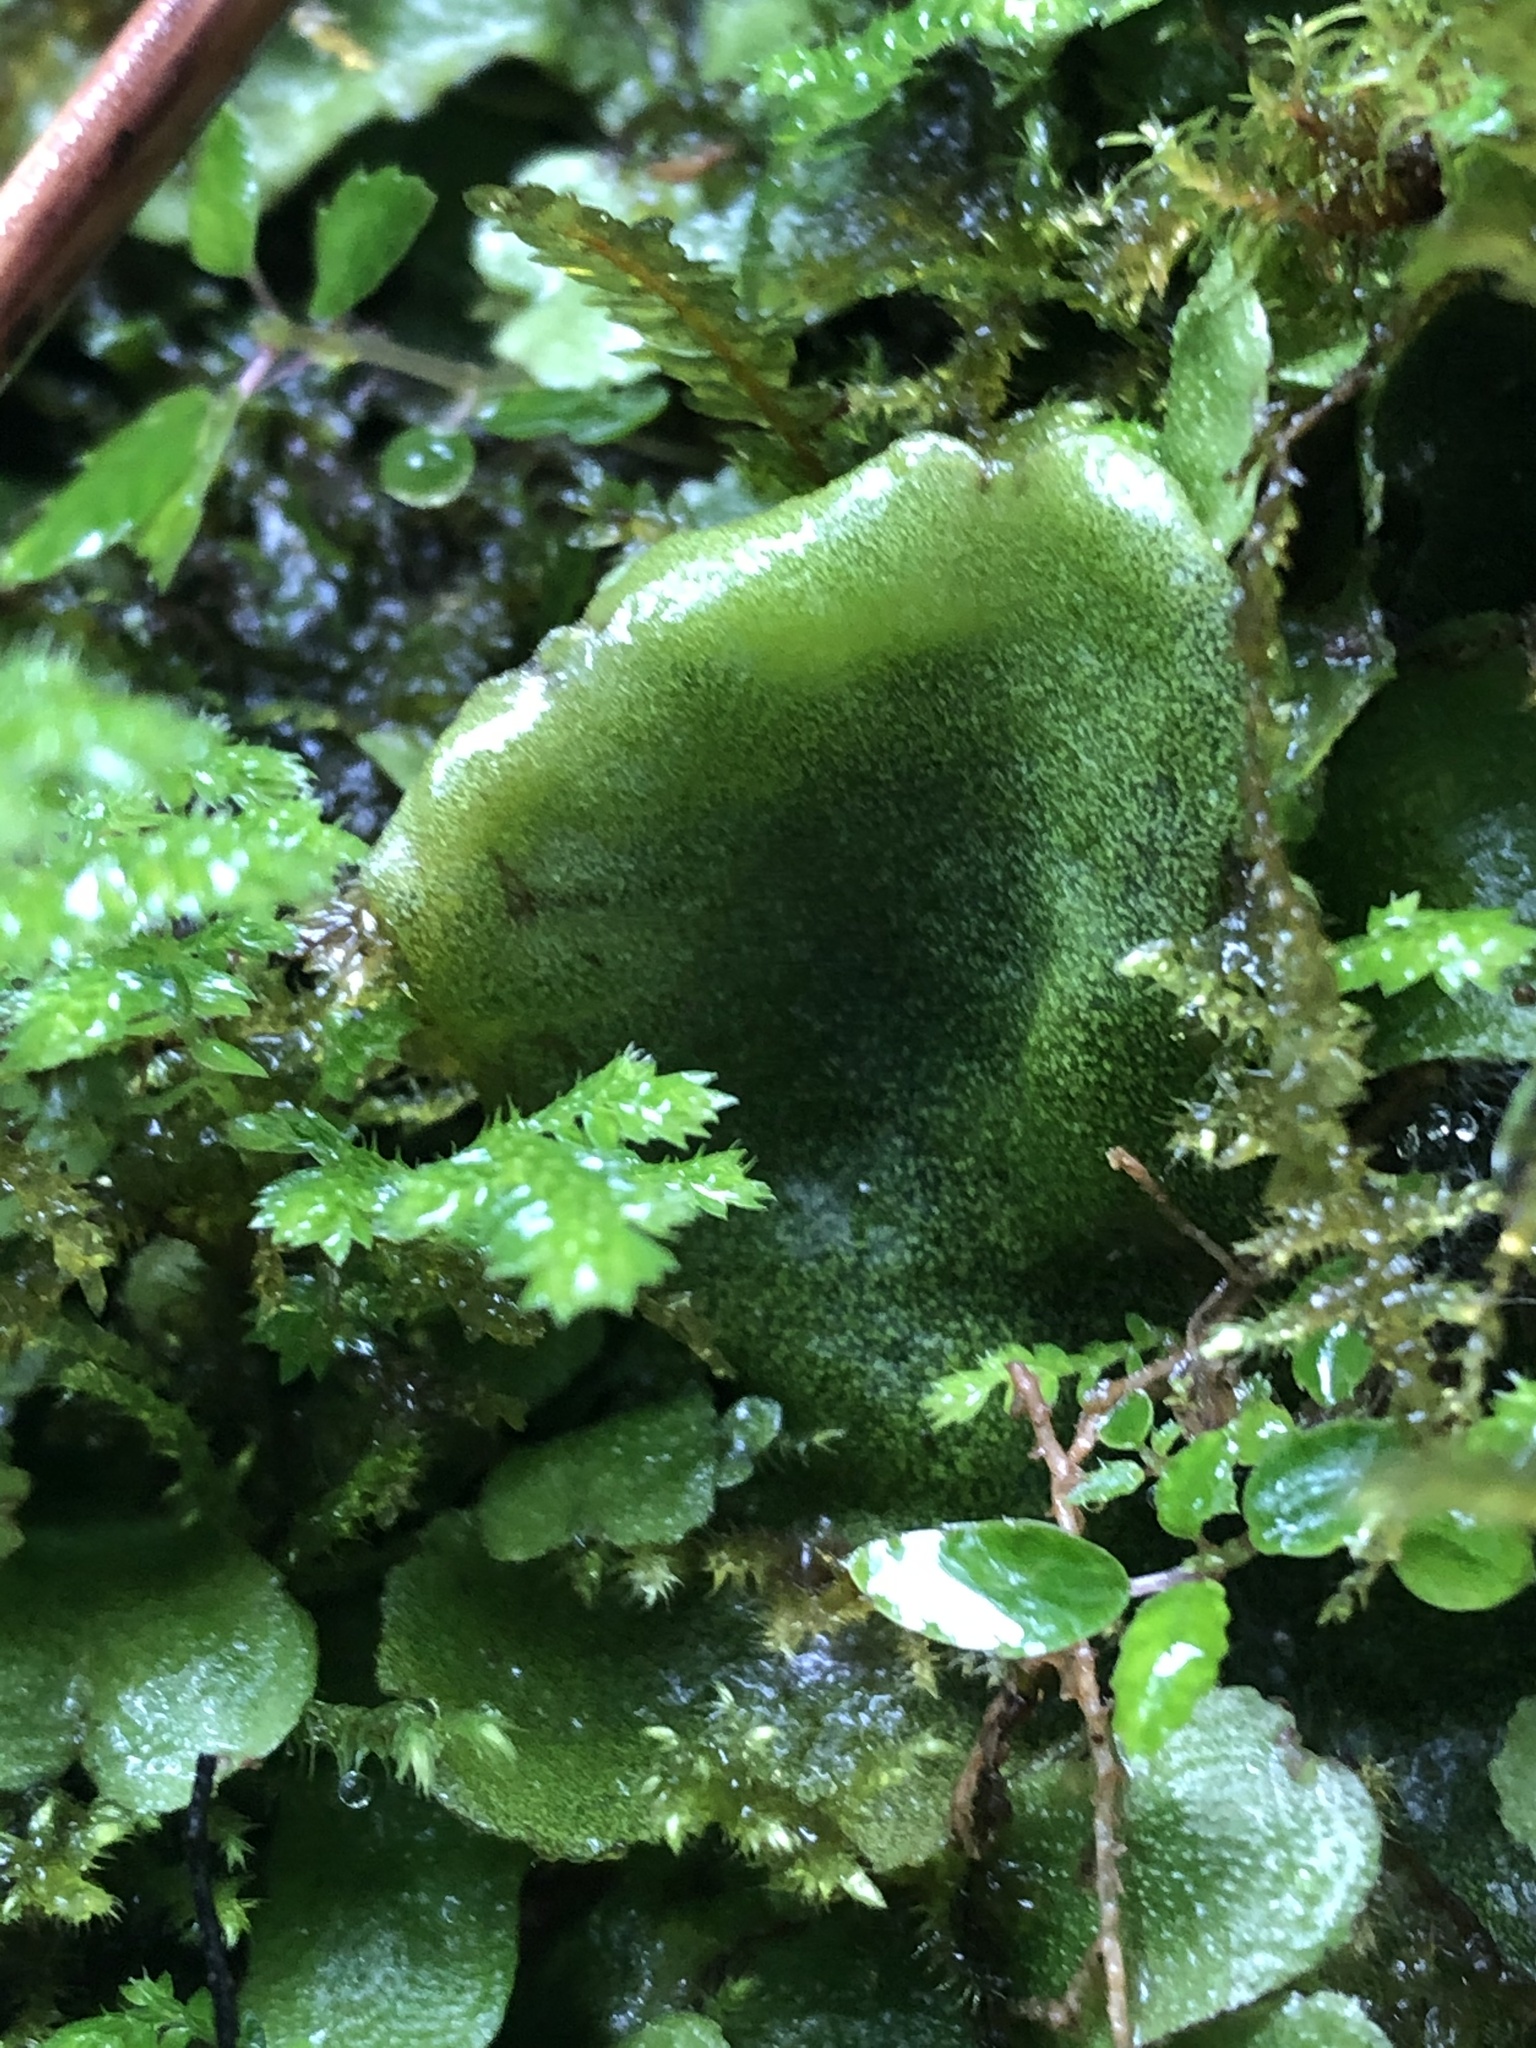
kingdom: Plantae
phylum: Marchantiophyta
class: Marchantiopsida
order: Marchantiales
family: Monocleaceae
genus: Monoclea
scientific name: Monoclea gottschei
